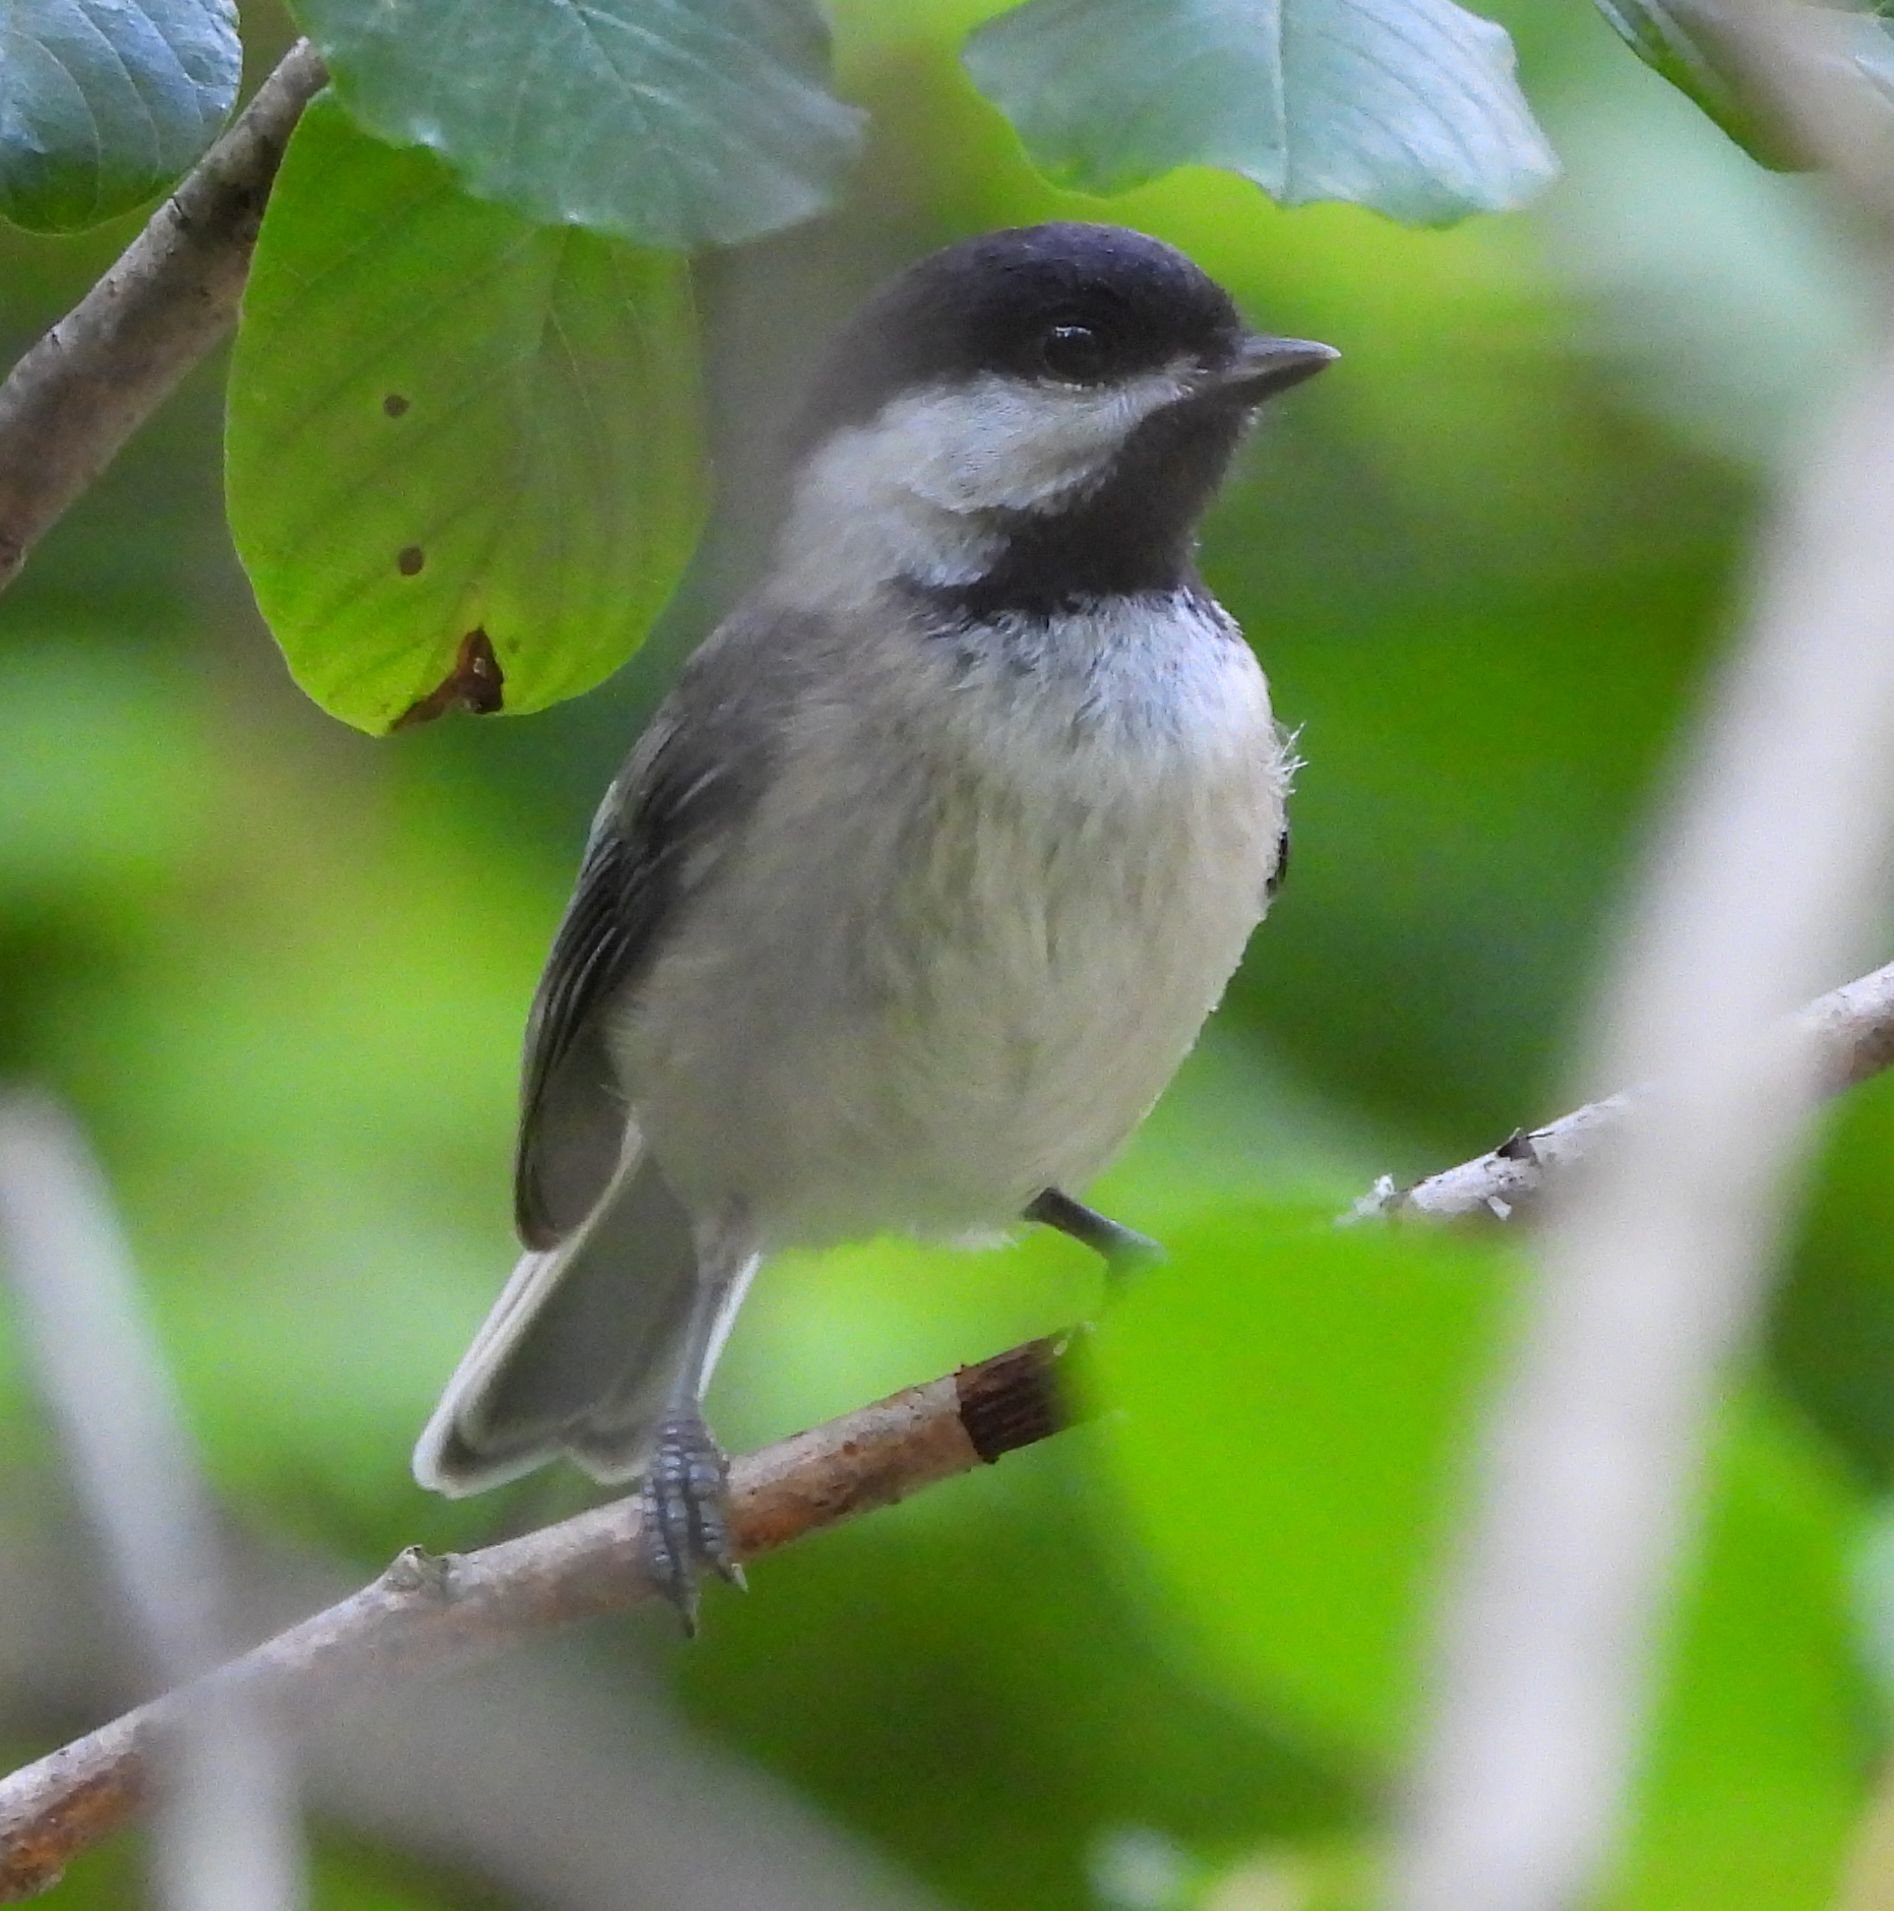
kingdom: Animalia
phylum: Chordata
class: Aves
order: Passeriformes
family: Paridae
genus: Poecile
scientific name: Poecile atricapillus
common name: Black-capped chickadee
